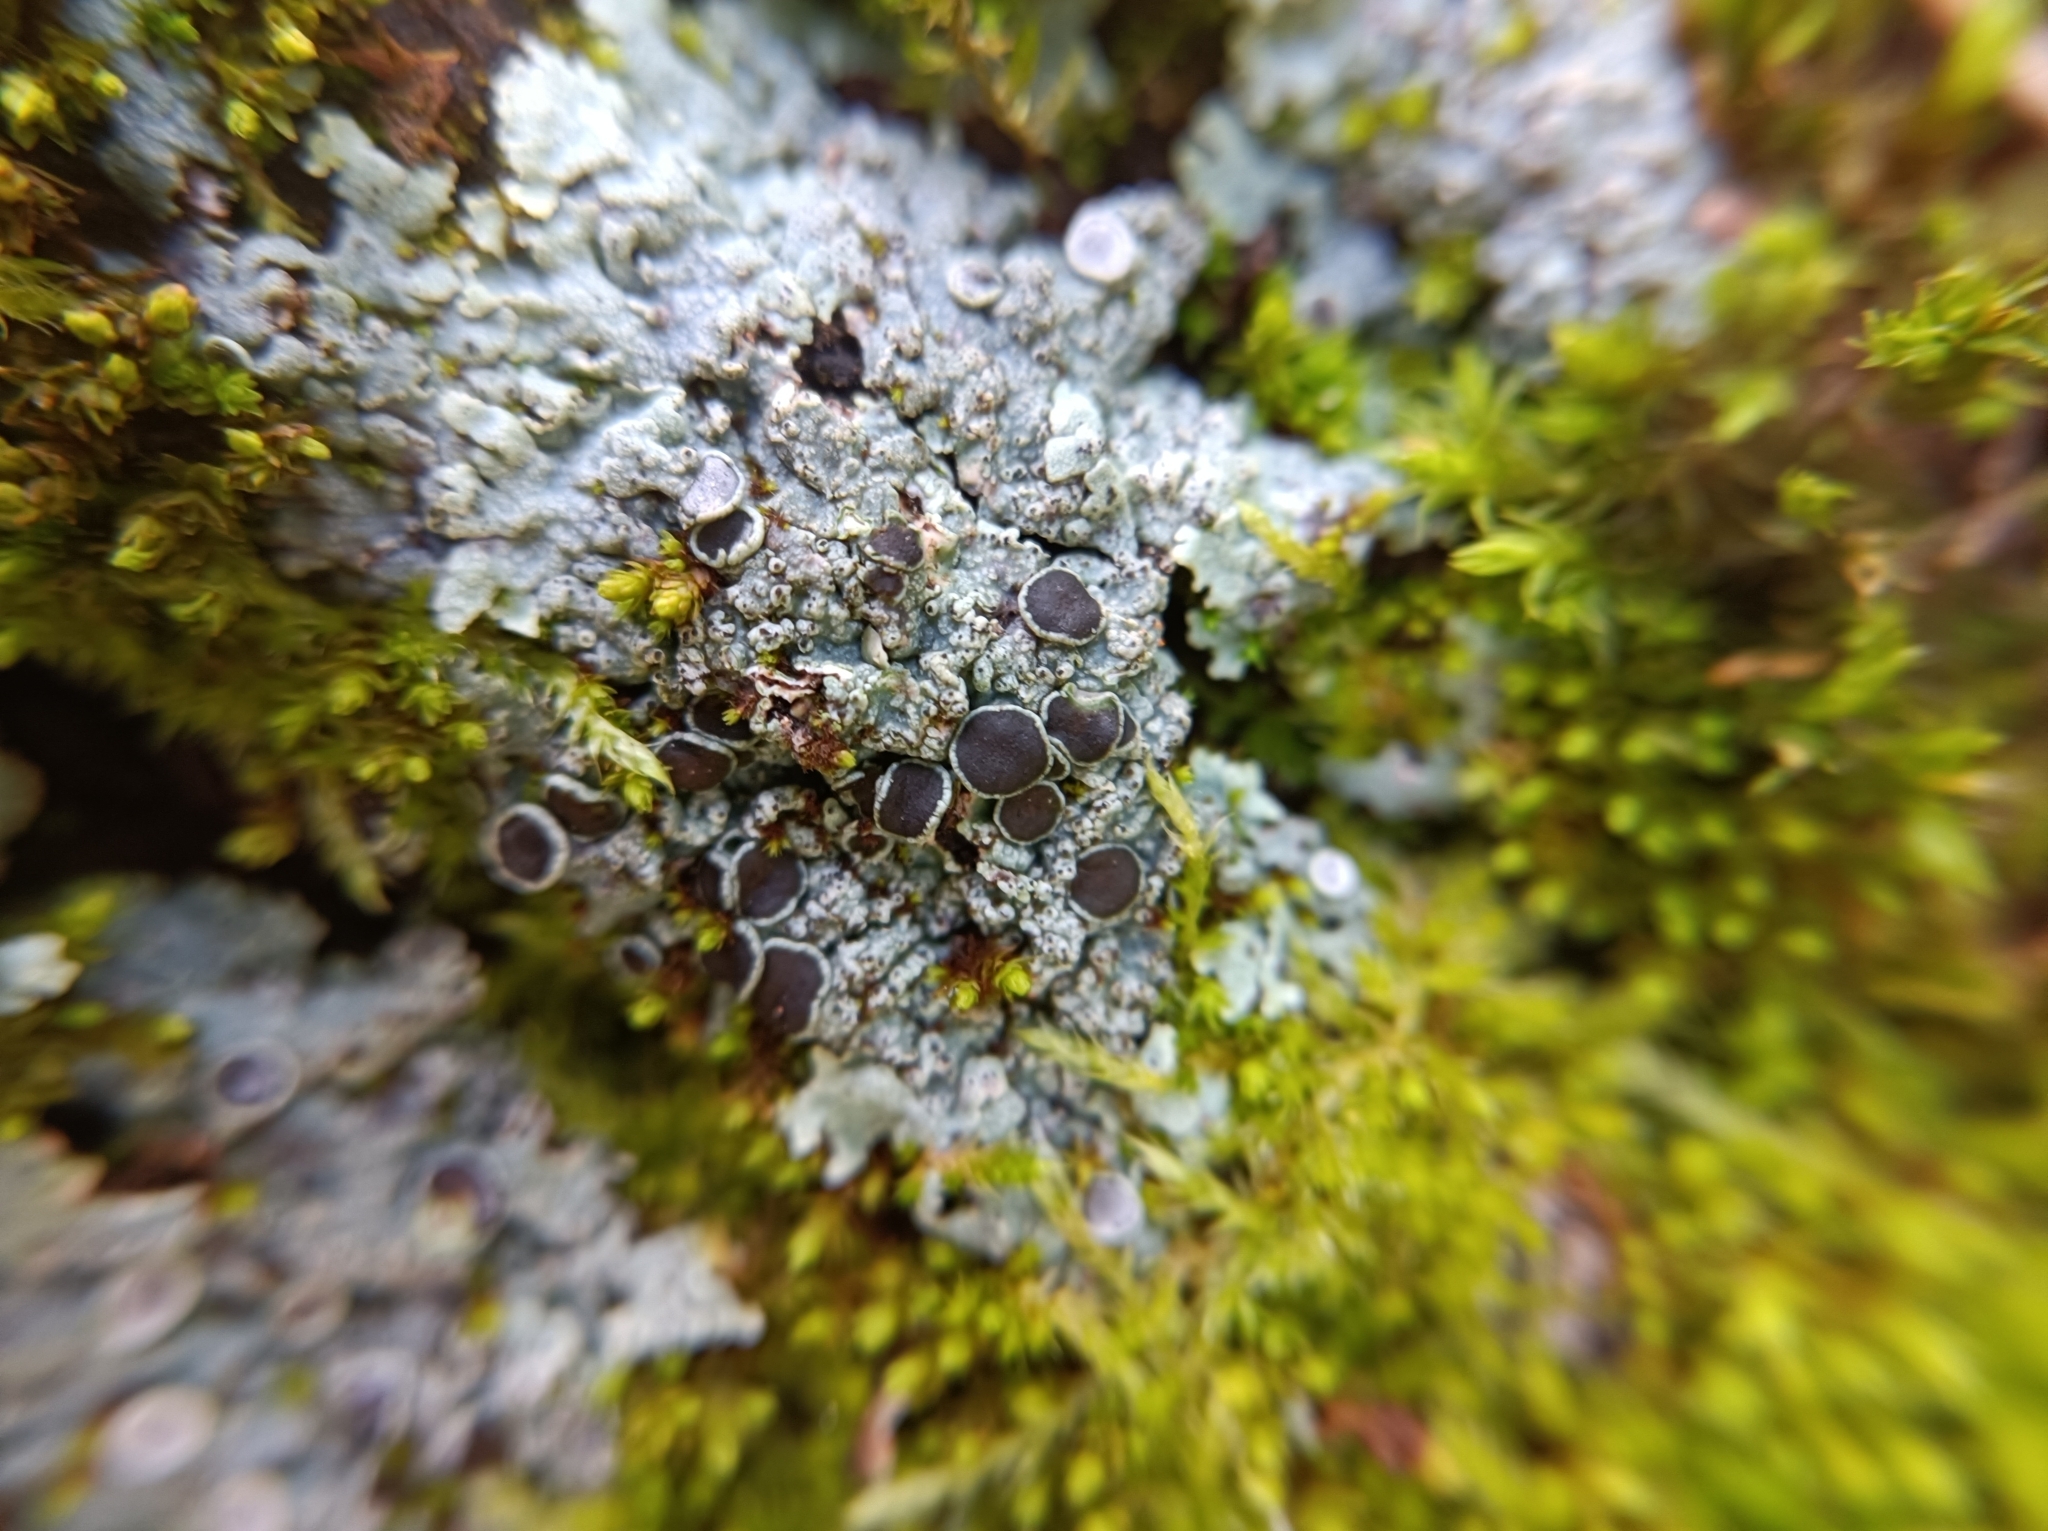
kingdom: Fungi
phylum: Ascomycota
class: Lecanoromycetes
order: Caliciales
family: Physciaceae
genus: Physcia
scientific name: Physcia aipolia
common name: Hoary rosette lichen
